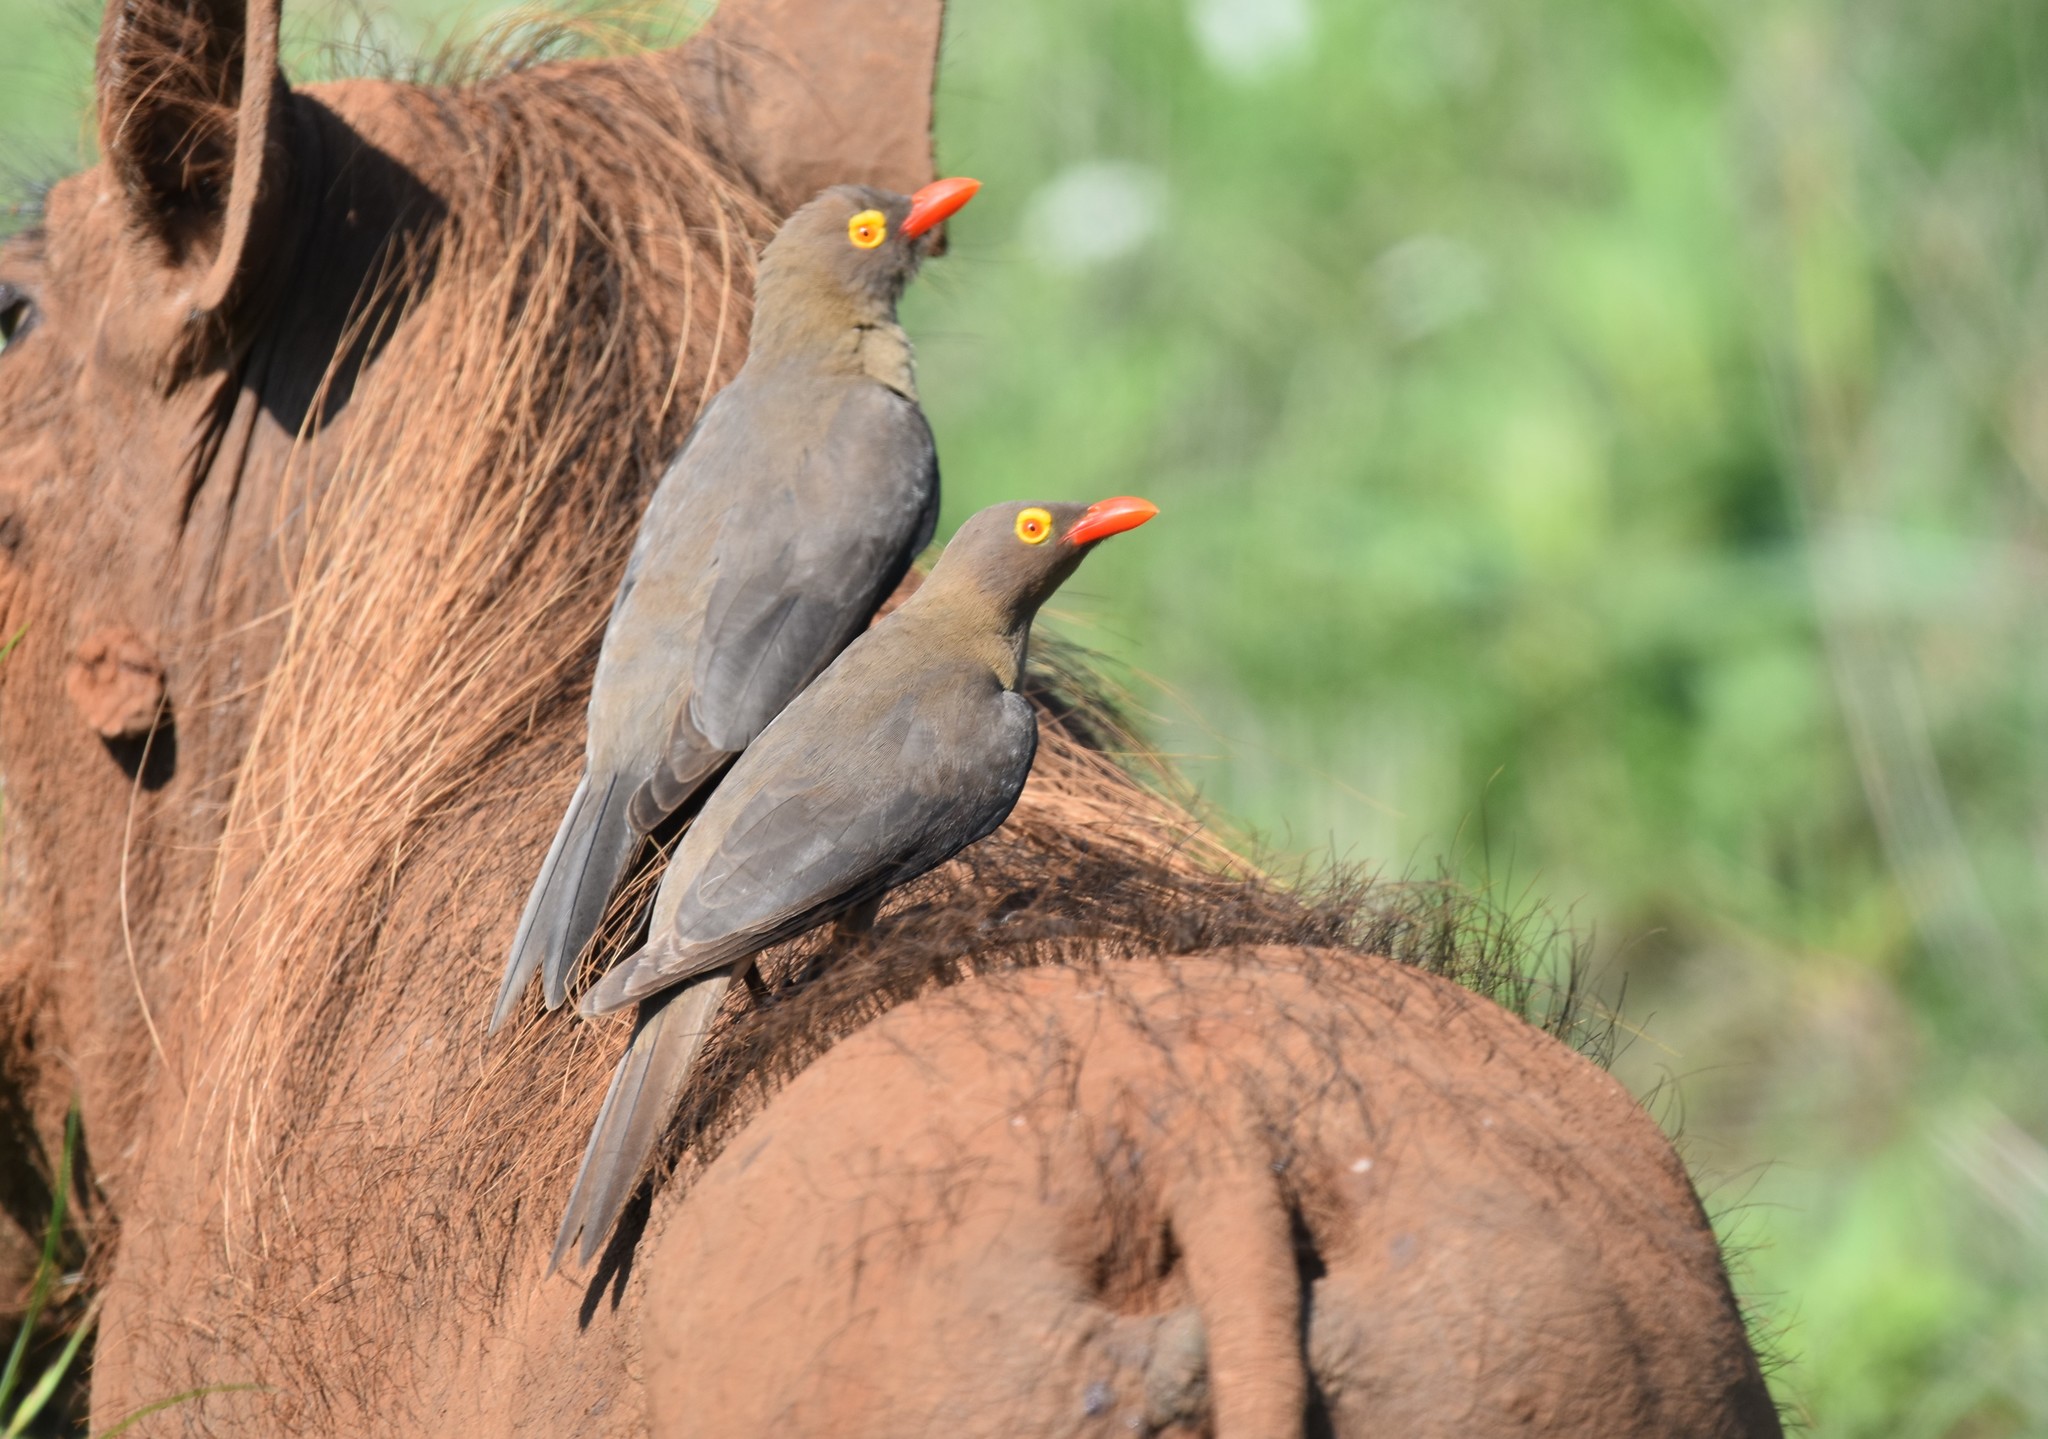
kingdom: Animalia
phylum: Chordata
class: Aves
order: Passeriformes
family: Buphagidae
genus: Buphagus
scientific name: Buphagus erythrorhynchus
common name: Red-billed oxpecker
